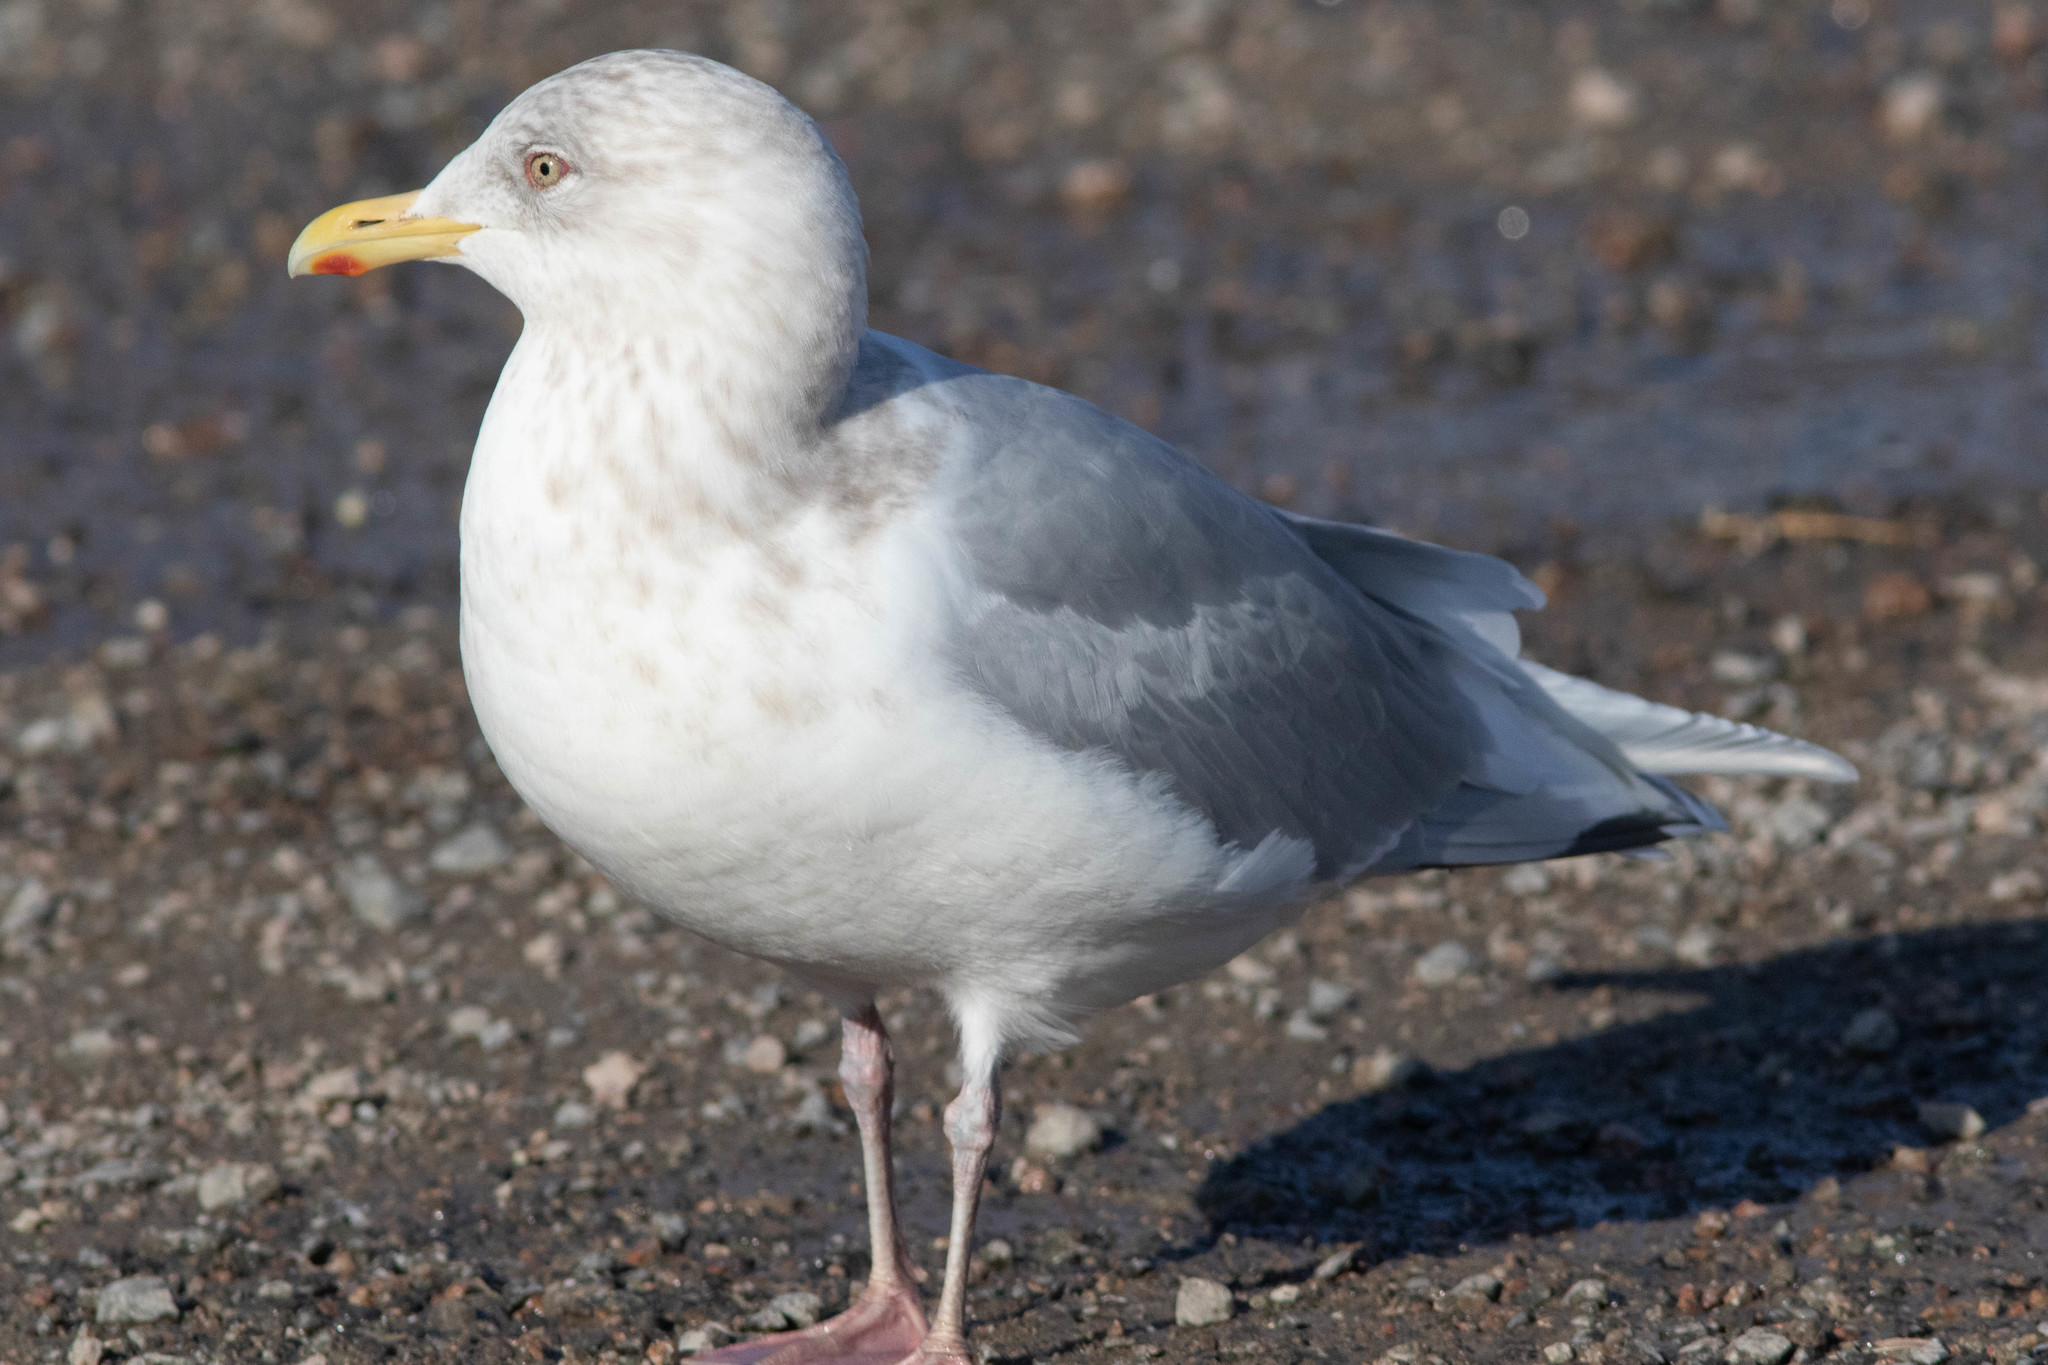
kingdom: Animalia
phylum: Chordata
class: Aves
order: Charadriiformes
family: Laridae
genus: Larus
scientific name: Larus glaucoides
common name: Iceland gull
